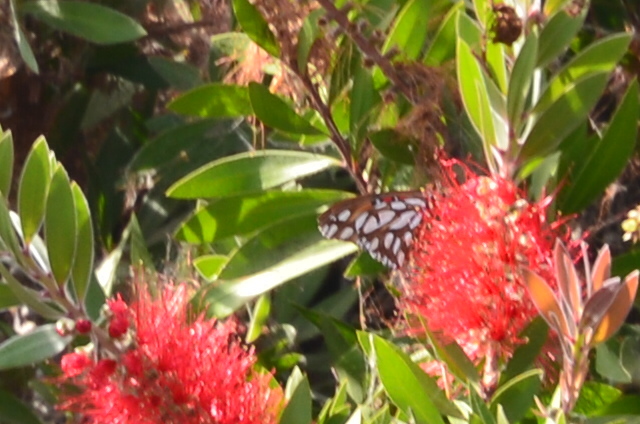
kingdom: Animalia
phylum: Arthropoda
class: Insecta
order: Lepidoptera
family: Nymphalidae
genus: Dione
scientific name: Dione vanillae
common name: Gulf fritillary
